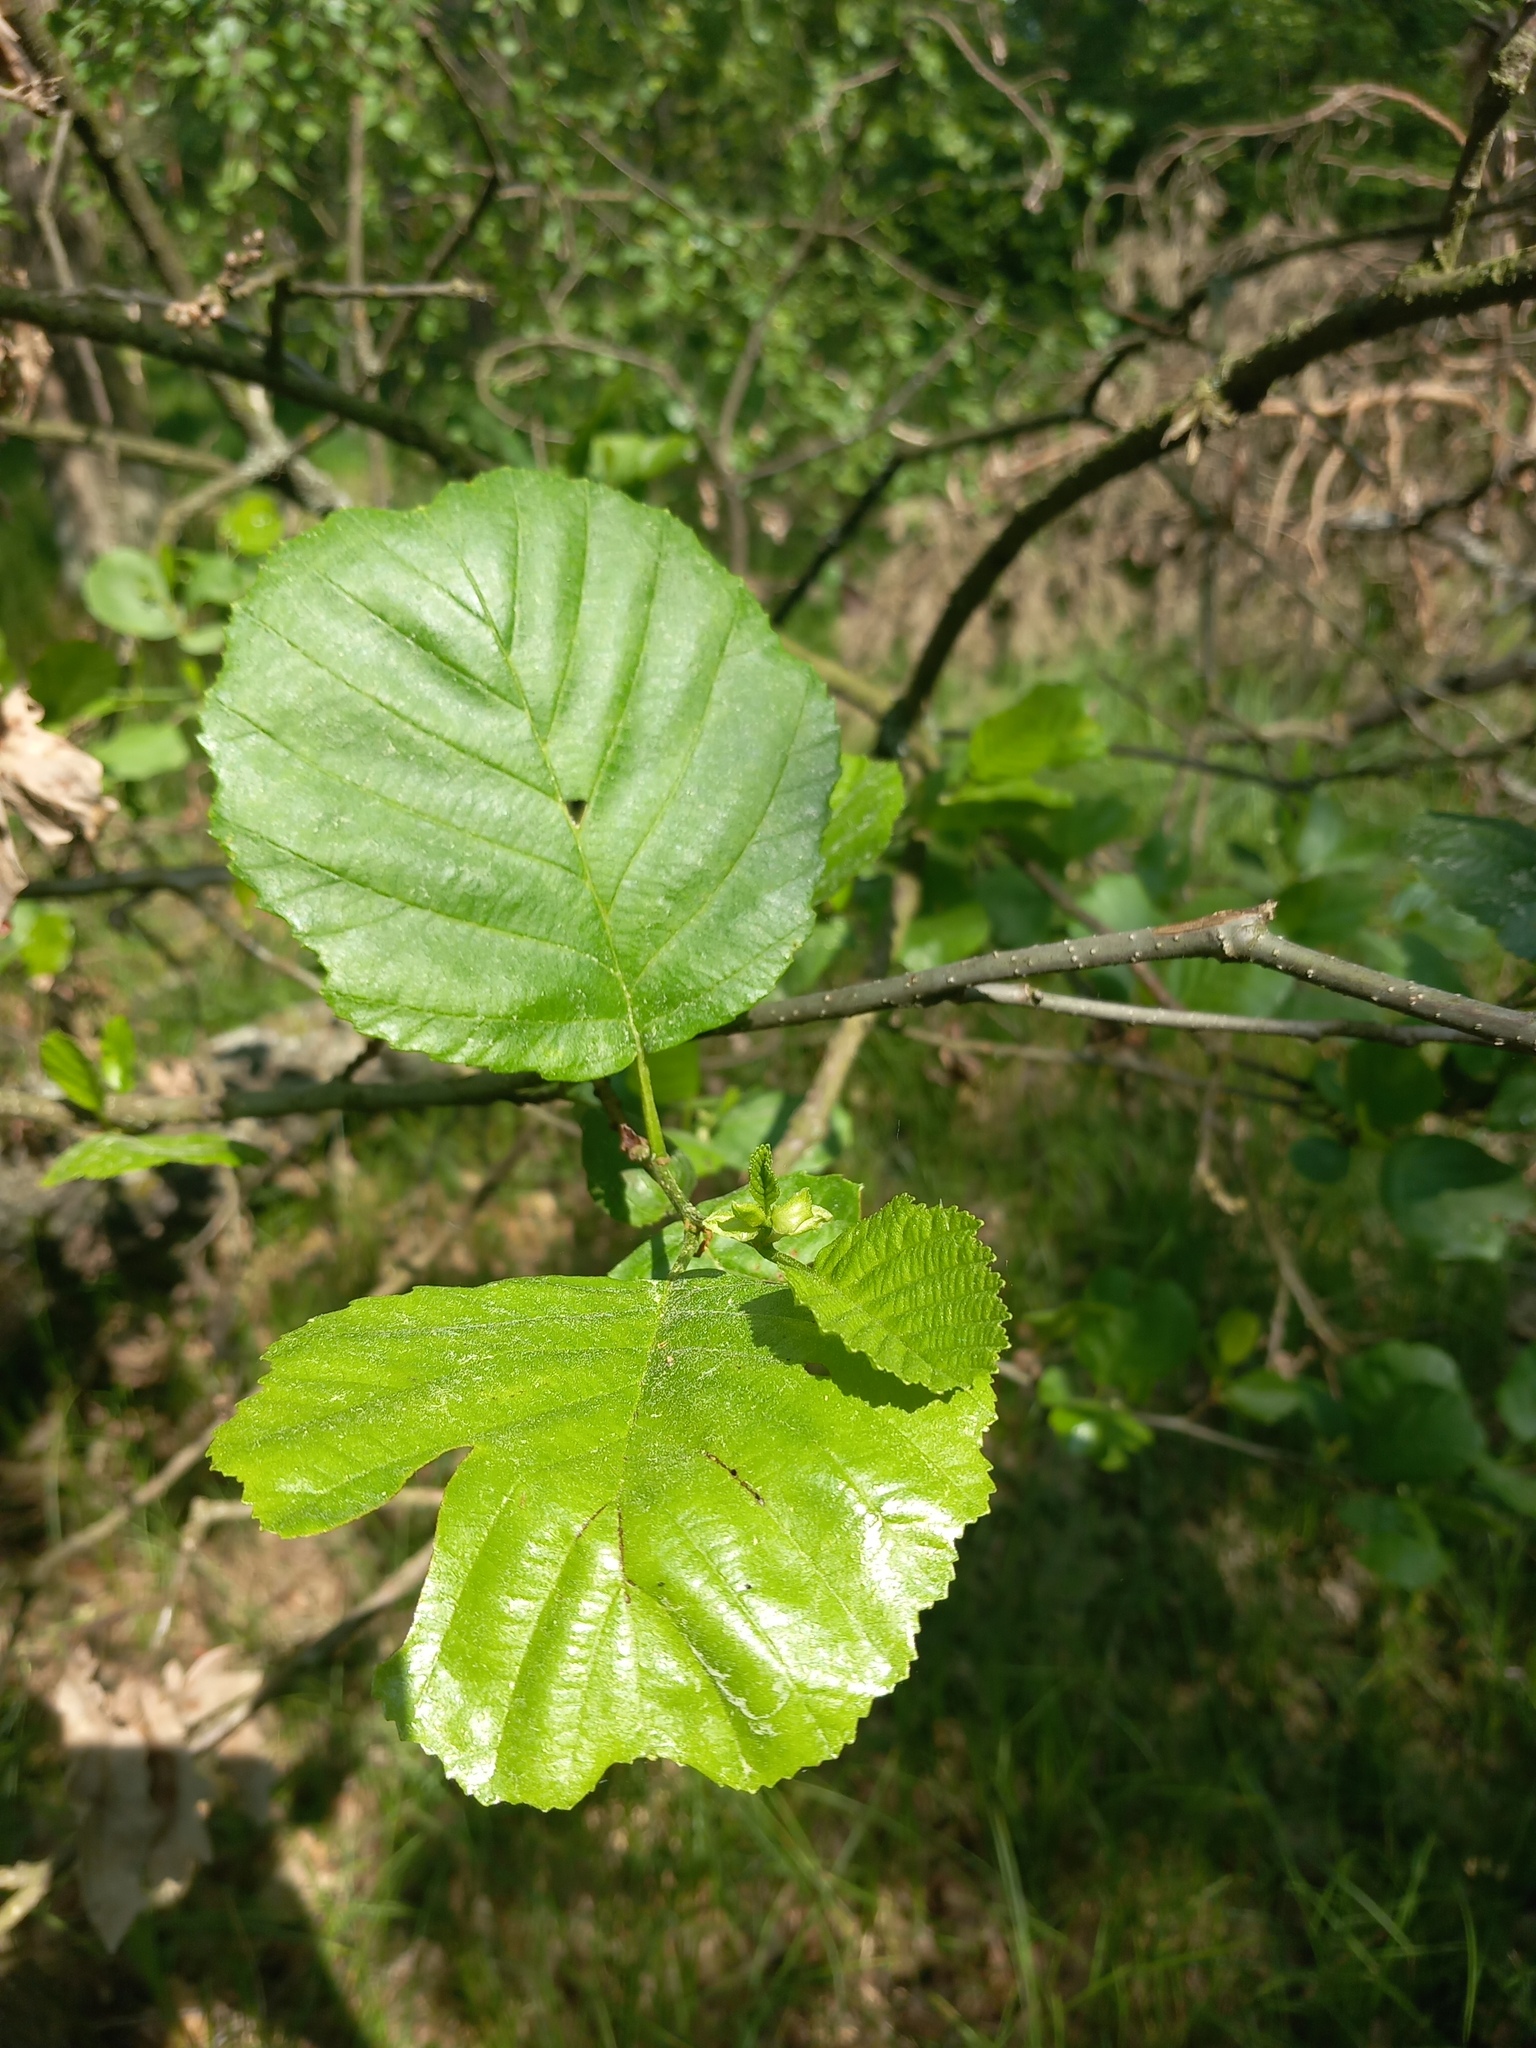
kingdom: Plantae
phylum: Tracheophyta
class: Magnoliopsida
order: Fagales
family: Betulaceae
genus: Alnus
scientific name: Alnus glutinosa
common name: Black alder
